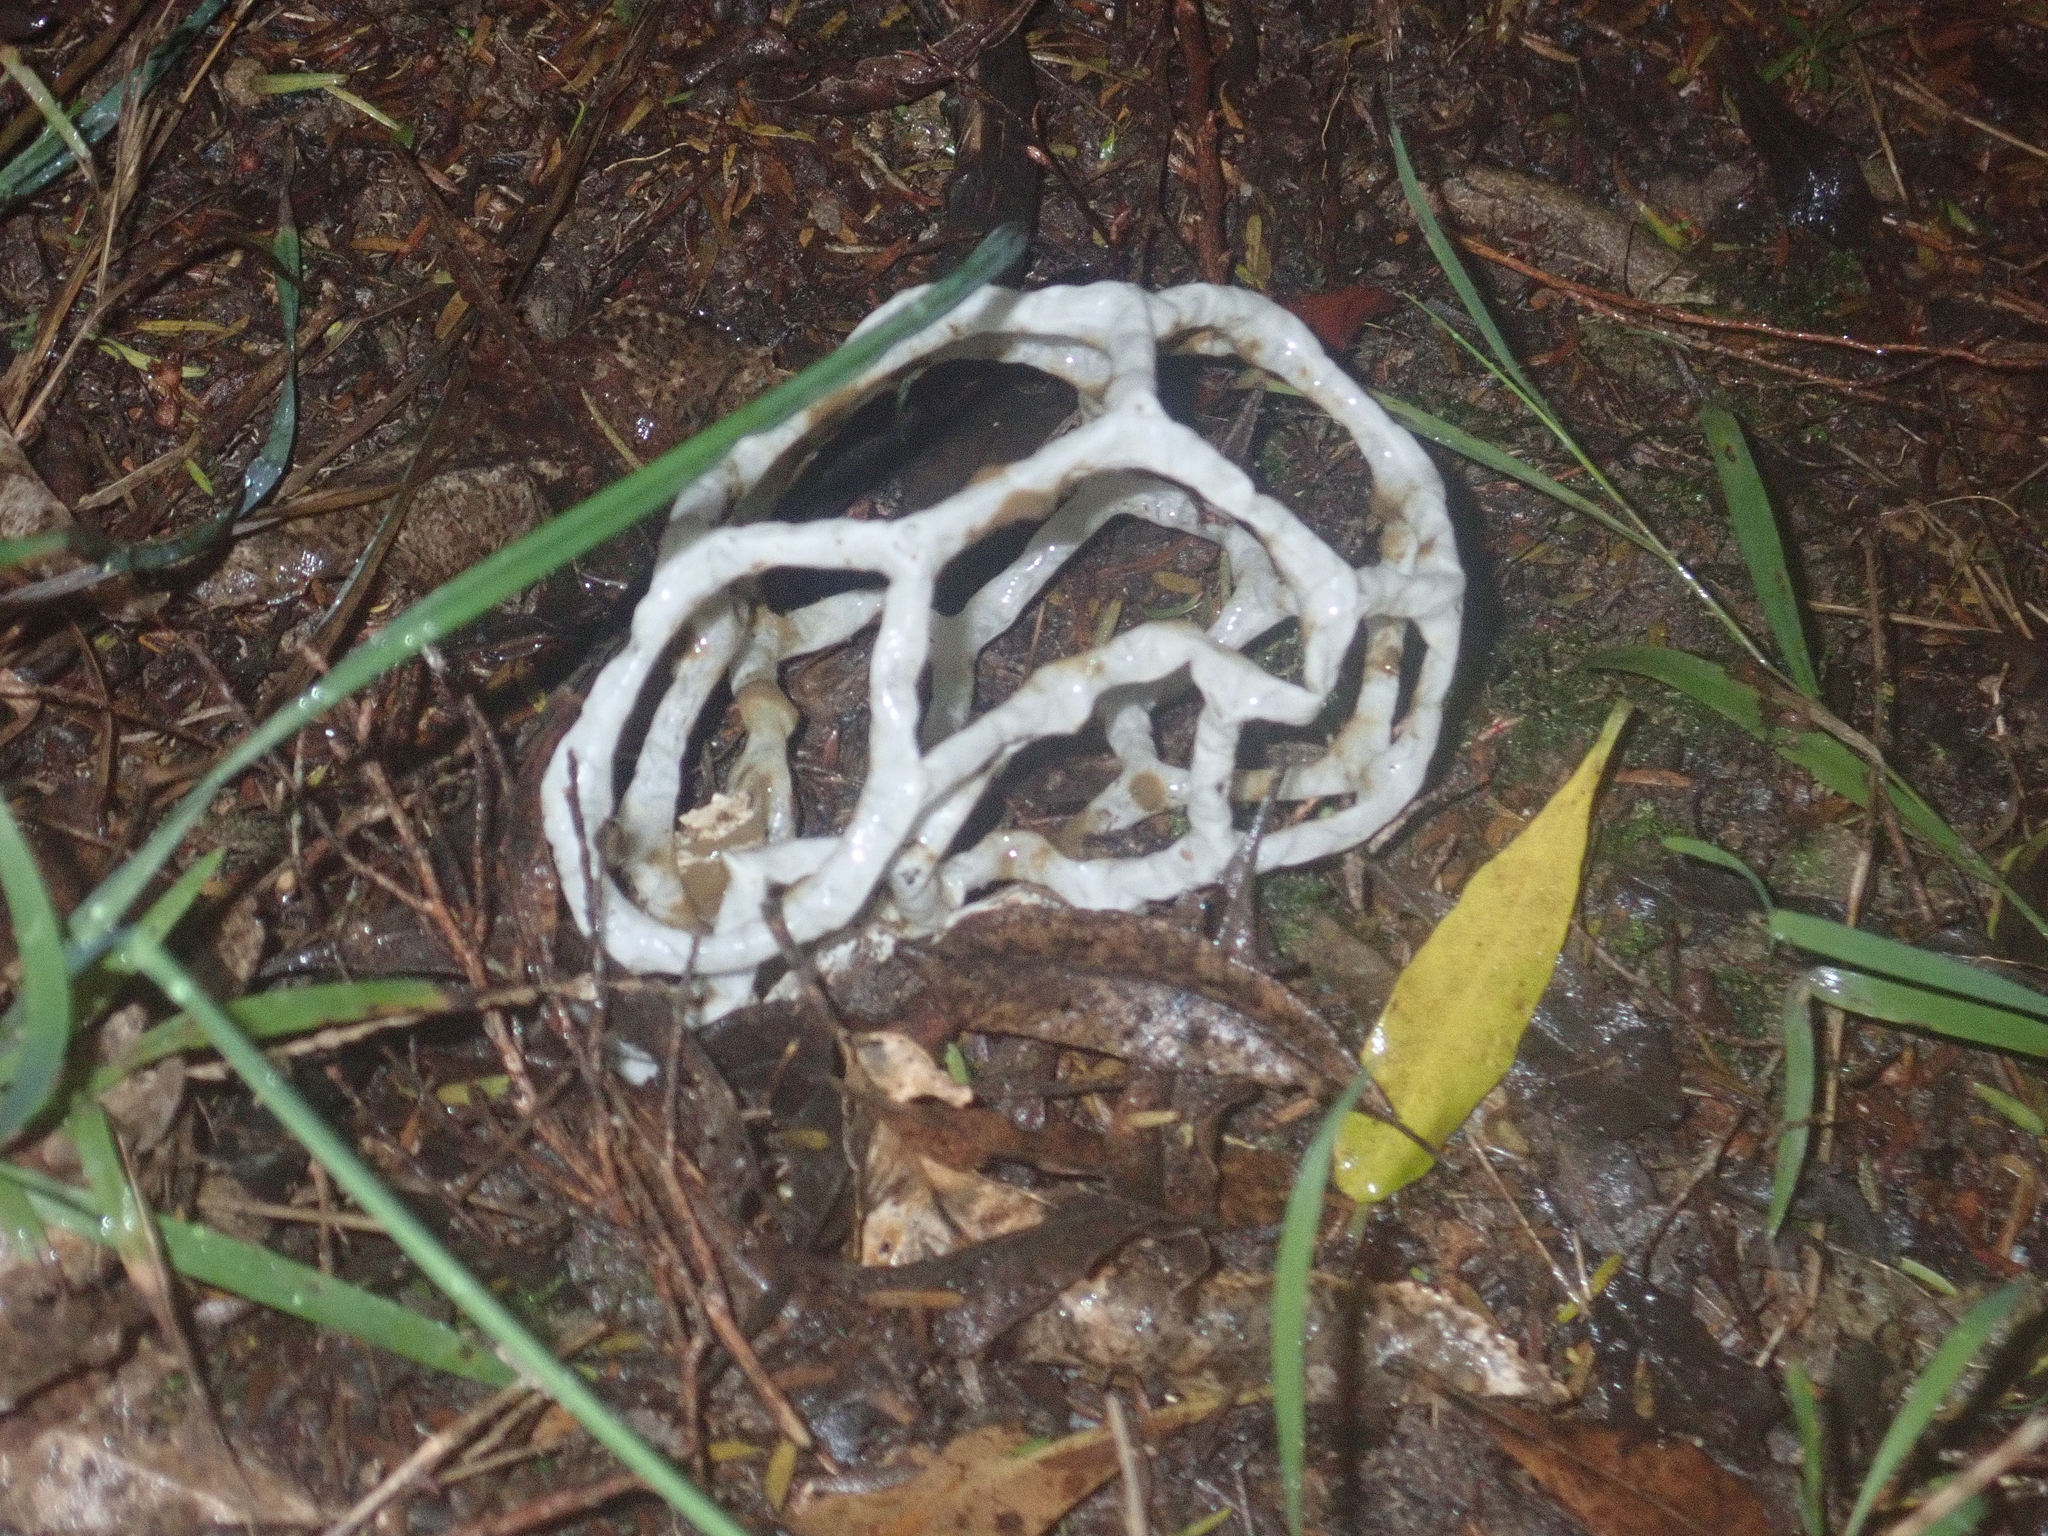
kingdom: Fungi
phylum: Basidiomycota
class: Agaricomycetes
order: Phallales
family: Phallaceae
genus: Ileodictyon
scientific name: Ileodictyon cibarium
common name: Basket fungus
